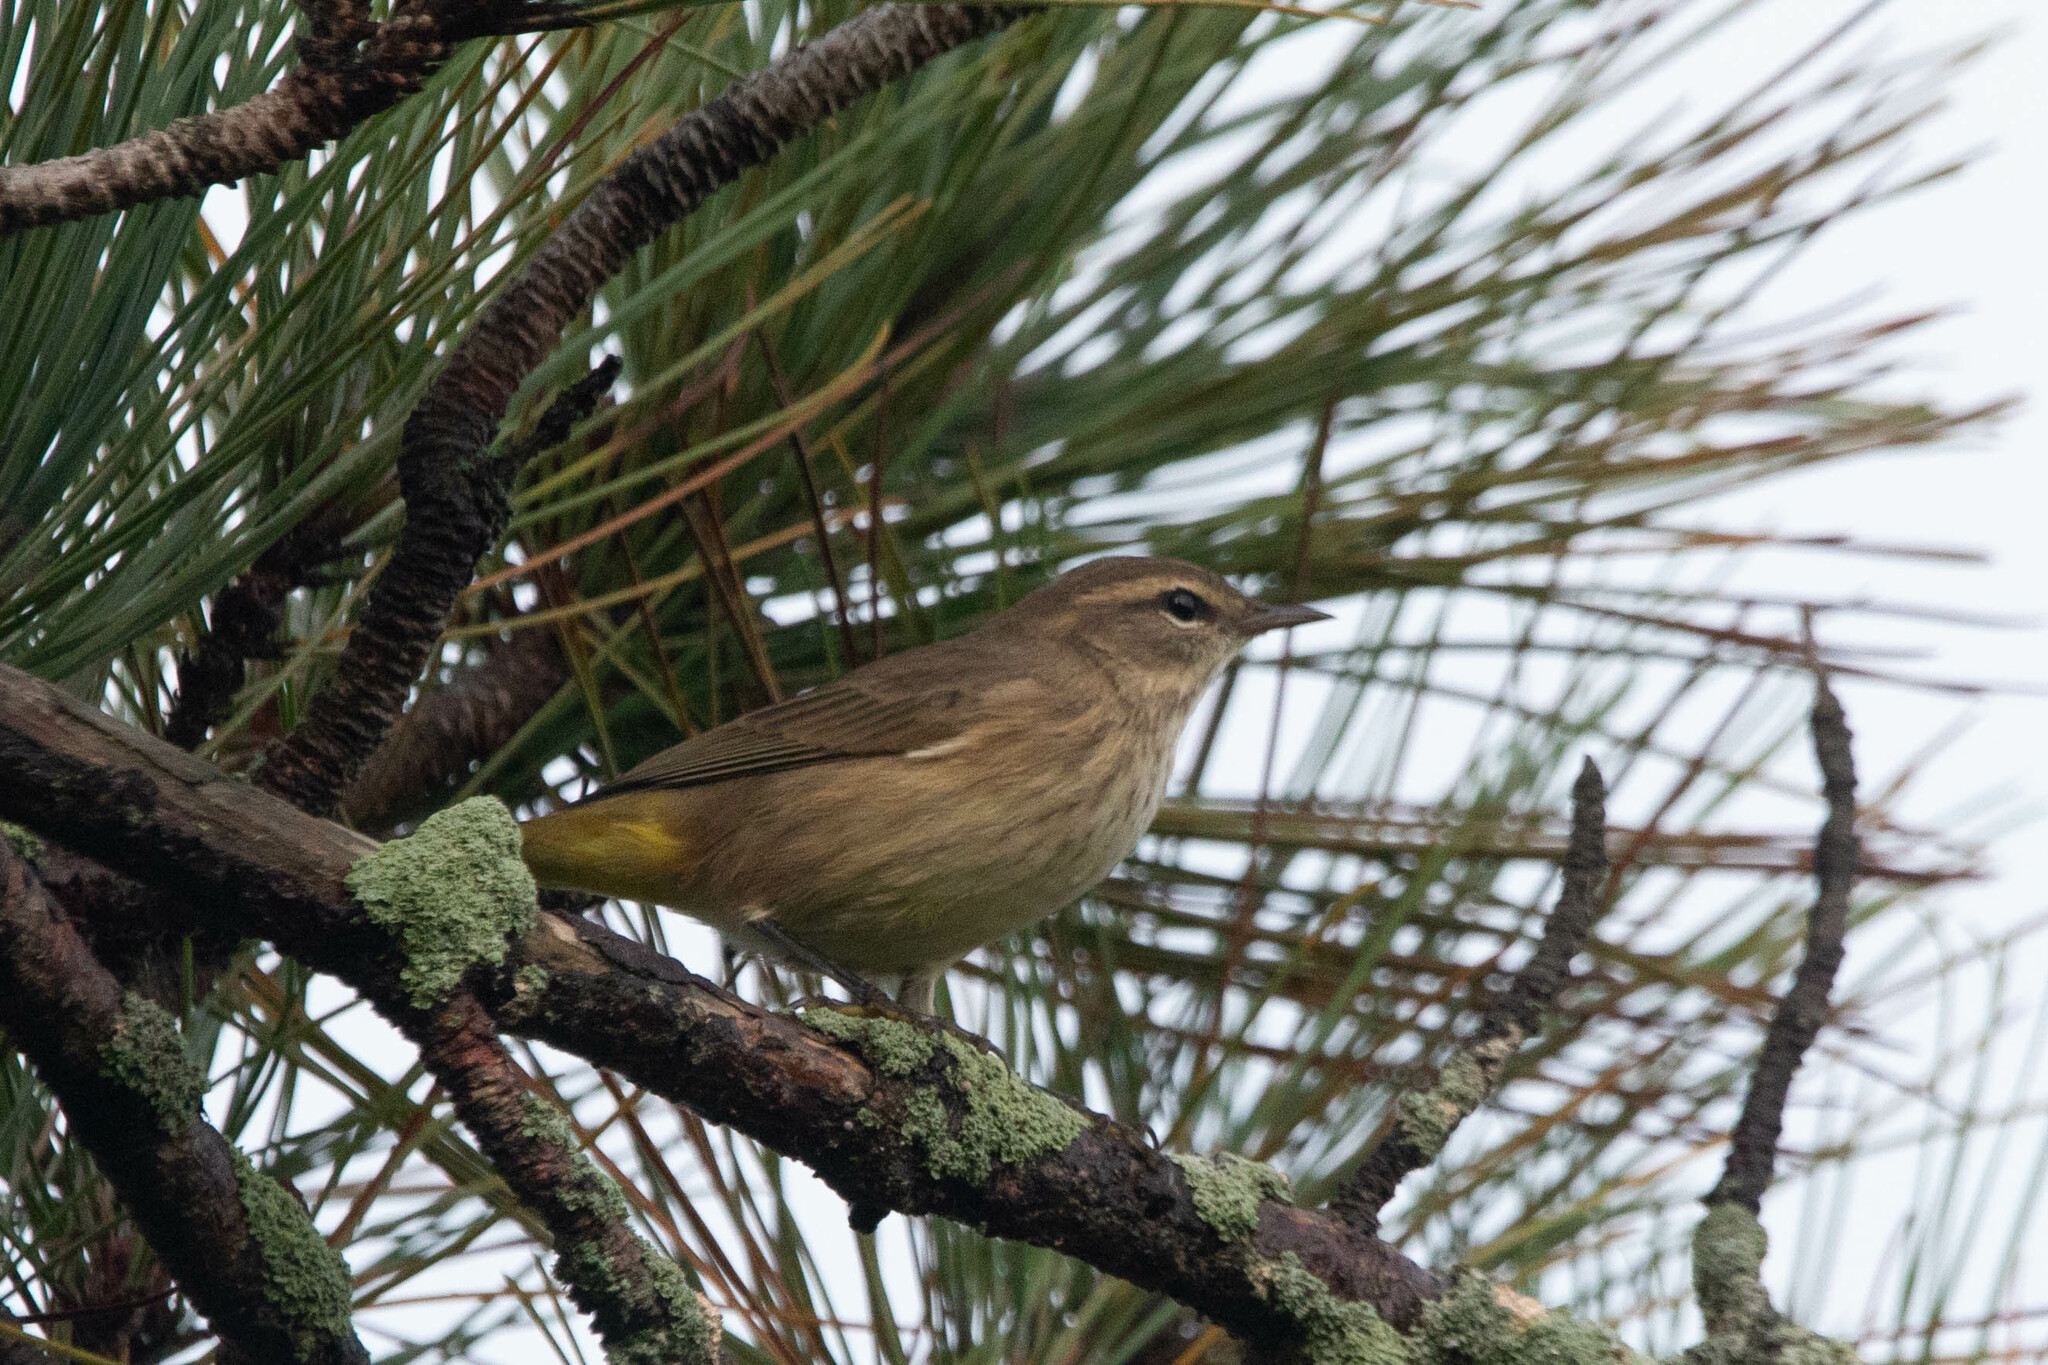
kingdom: Animalia
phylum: Chordata
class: Aves
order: Passeriformes
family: Parulidae
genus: Setophaga
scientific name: Setophaga palmarum
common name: Palm warbler
